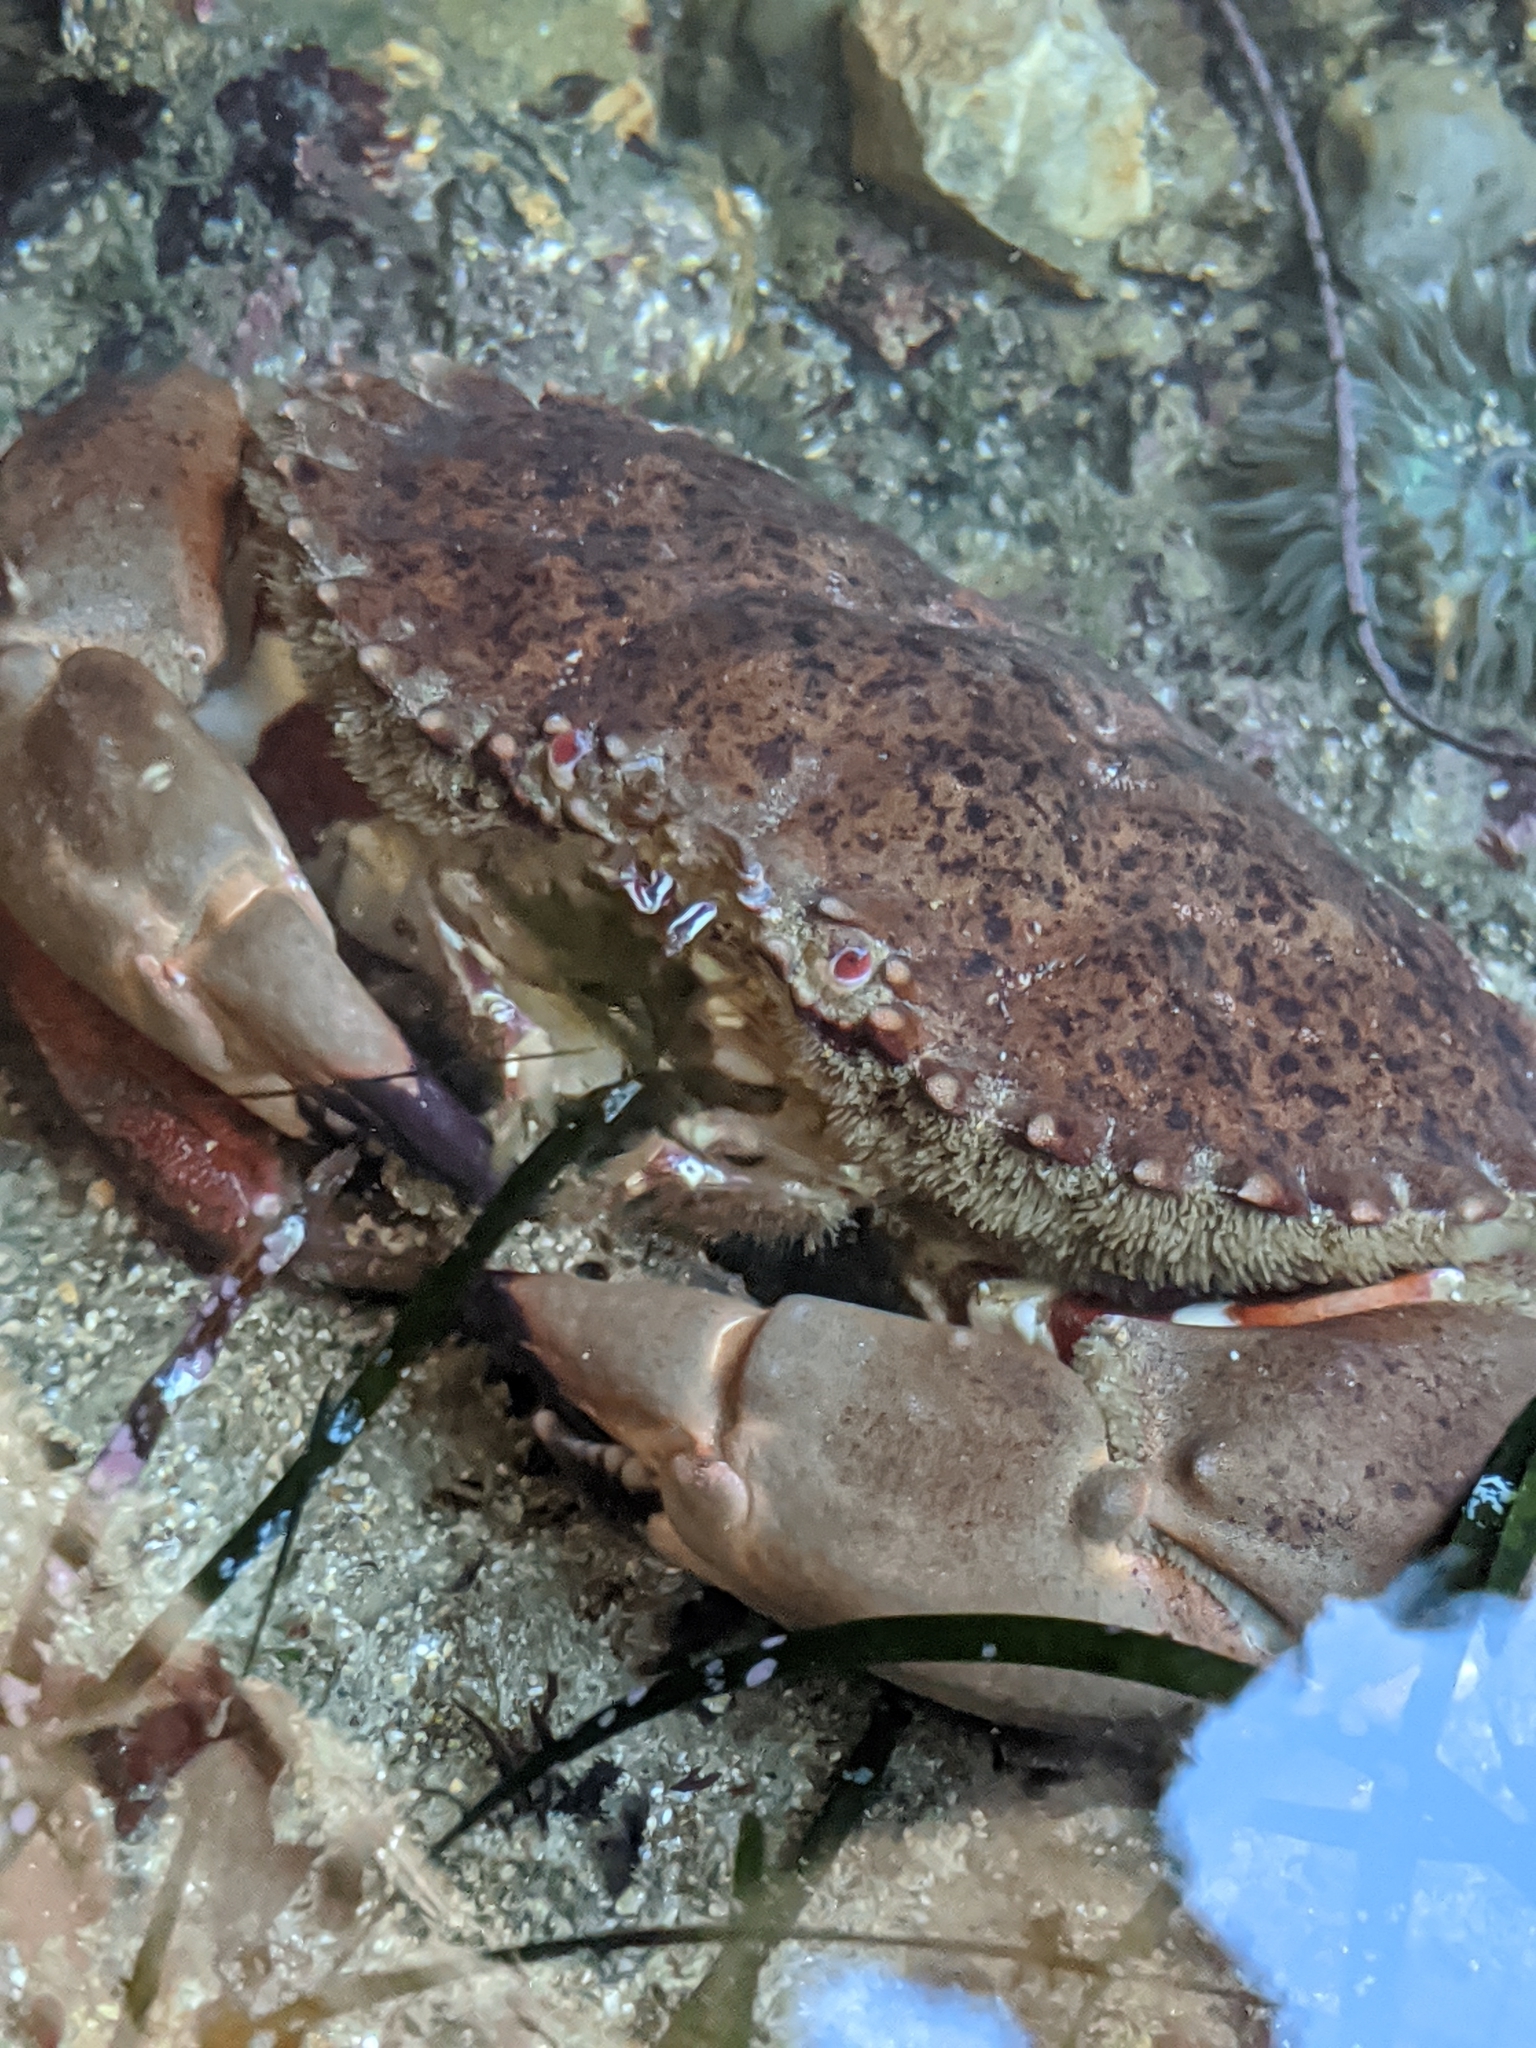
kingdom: Animalia
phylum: Arthropoda
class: Malacostraca
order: Decapoda
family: Cancridae
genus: Romaleon
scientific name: Romaleon antennarium
